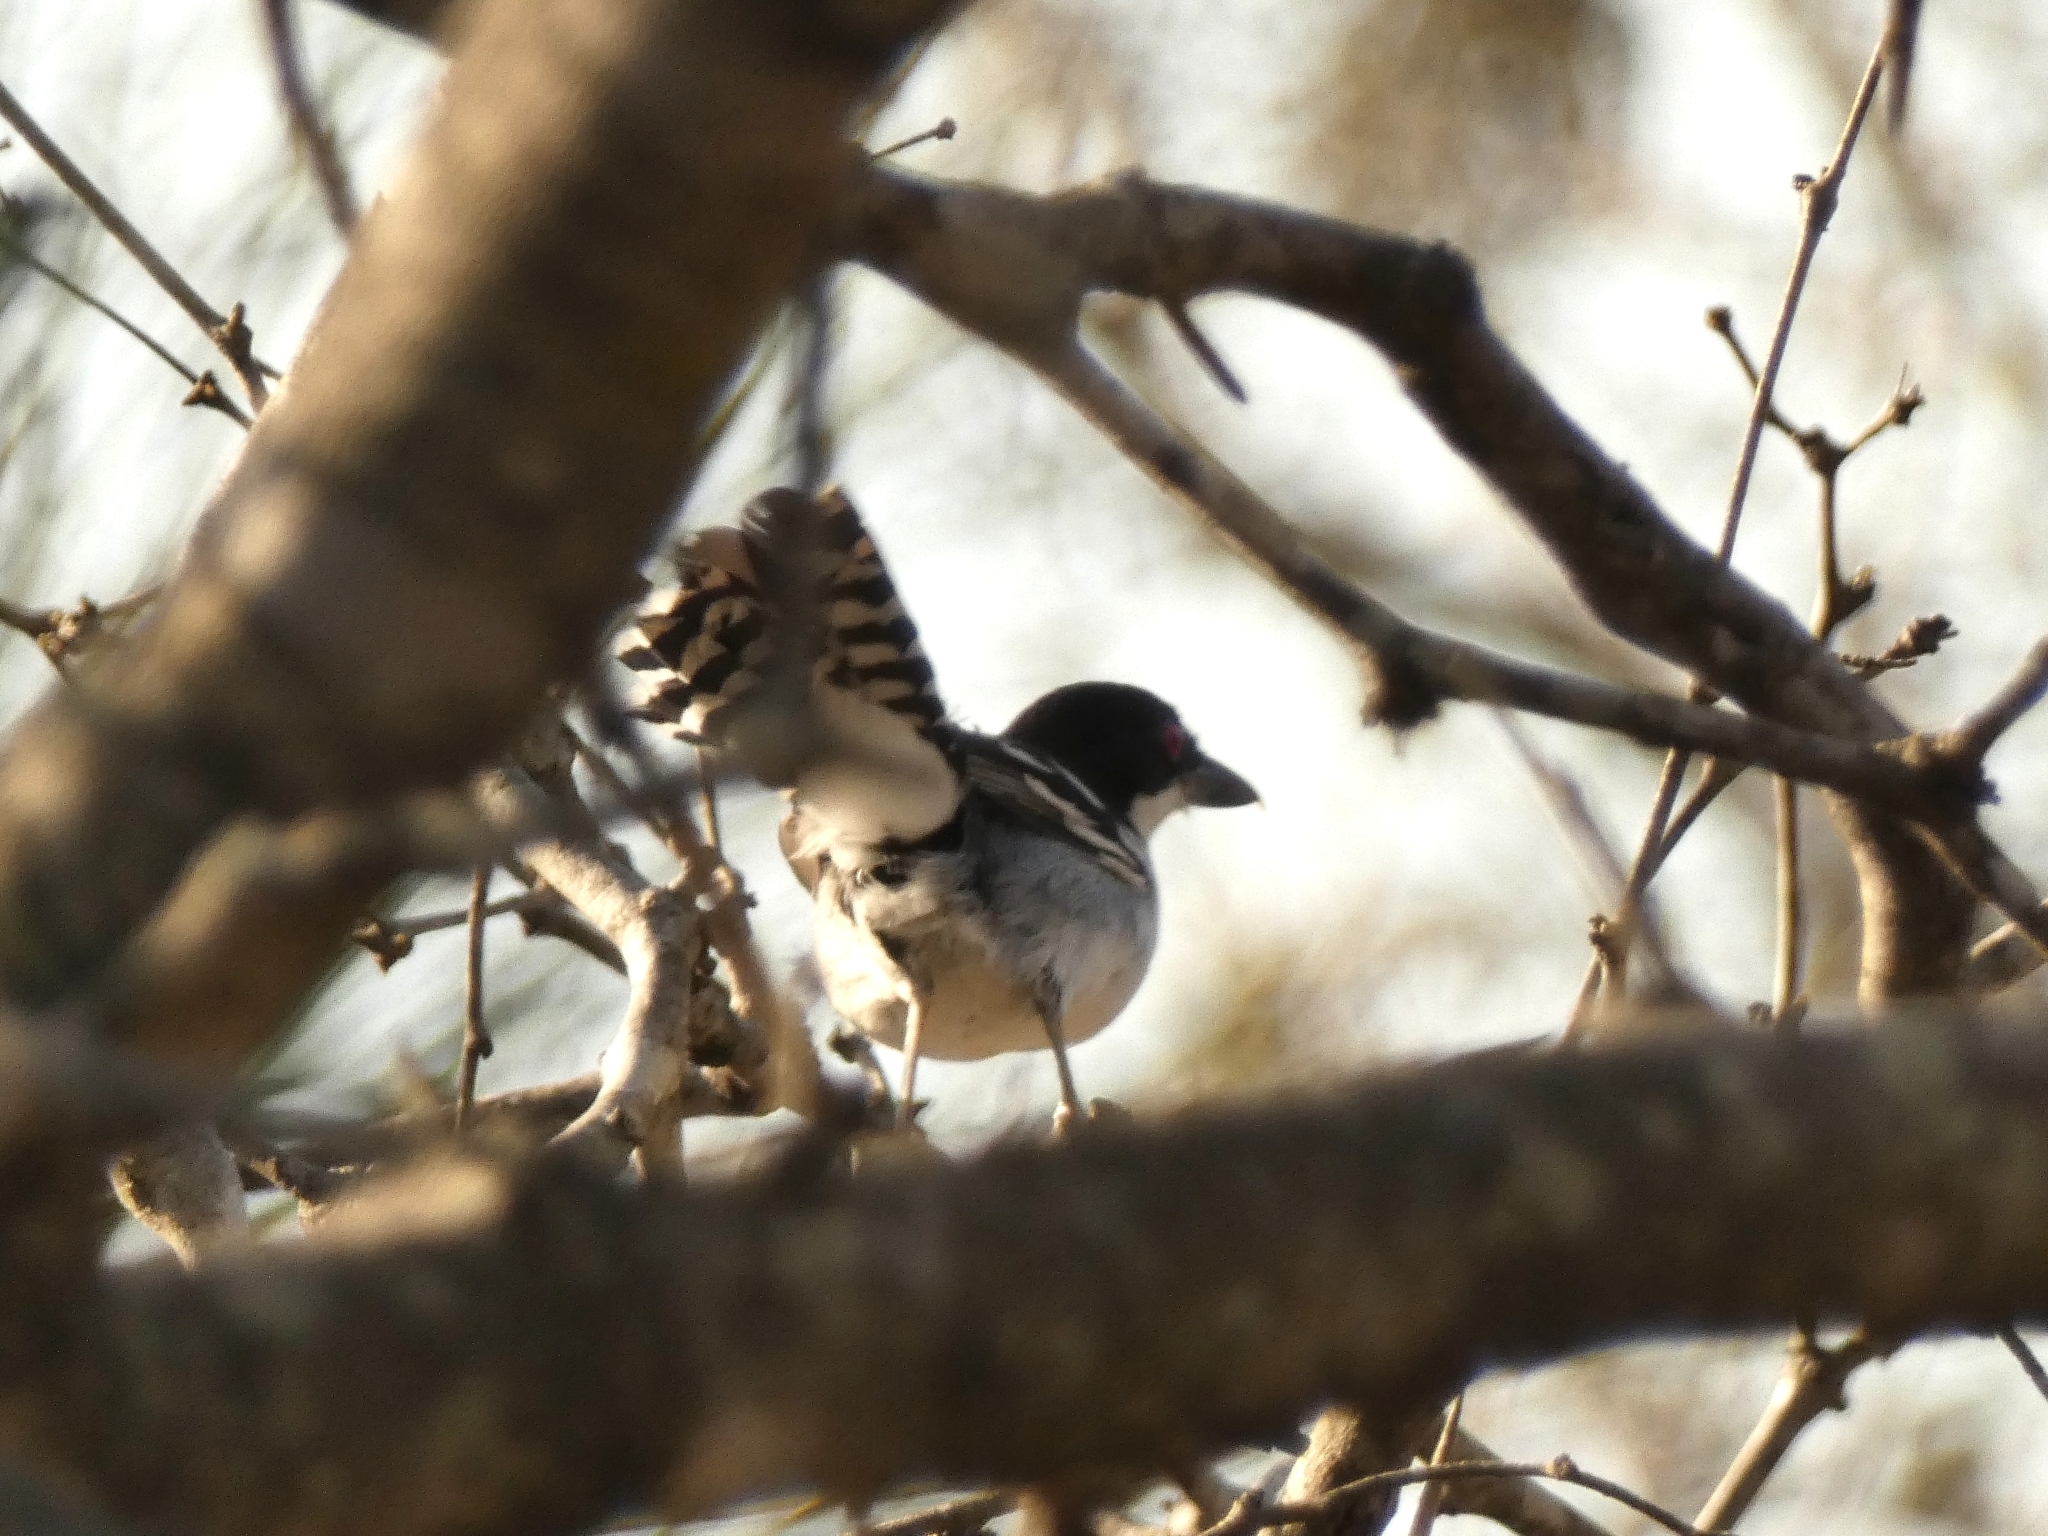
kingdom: Animalia
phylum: Chordata
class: Aves
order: Passeriformes
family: Thamnophilidae
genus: Taraba
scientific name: Taraba major
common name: Great antshrike
